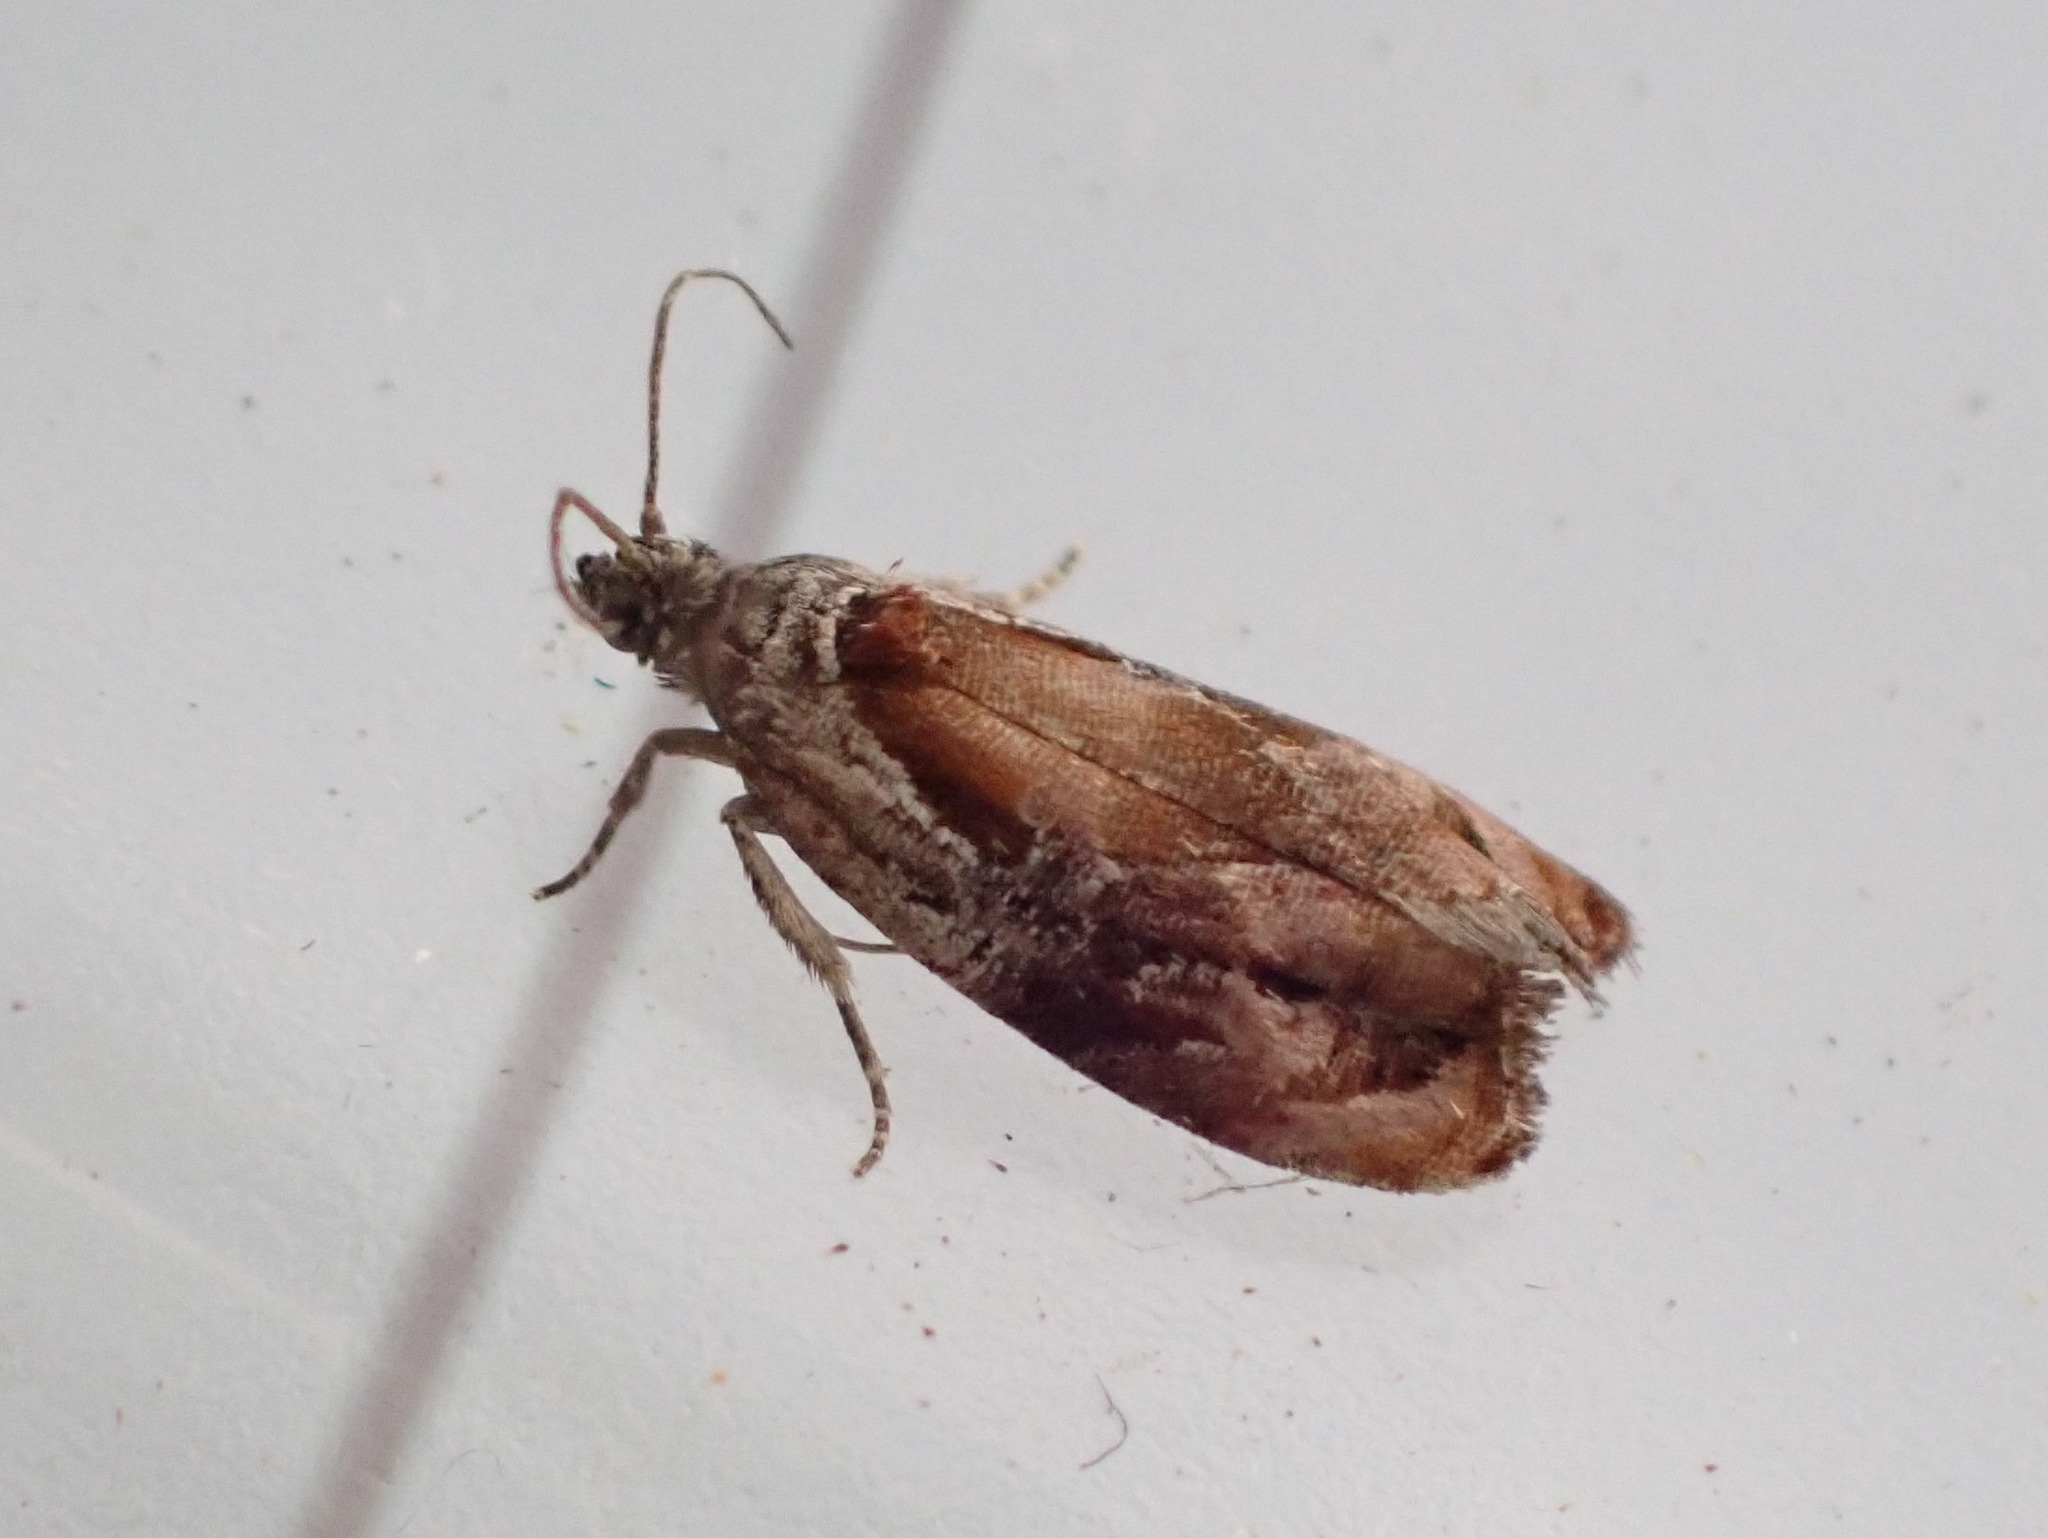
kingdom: Animalia
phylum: Arthropoda
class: Insecta
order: Lepidoptera
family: Tortricidae
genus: Zomaria
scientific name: Zomaria interruptolineana
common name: Broken-lined zomaria moth
